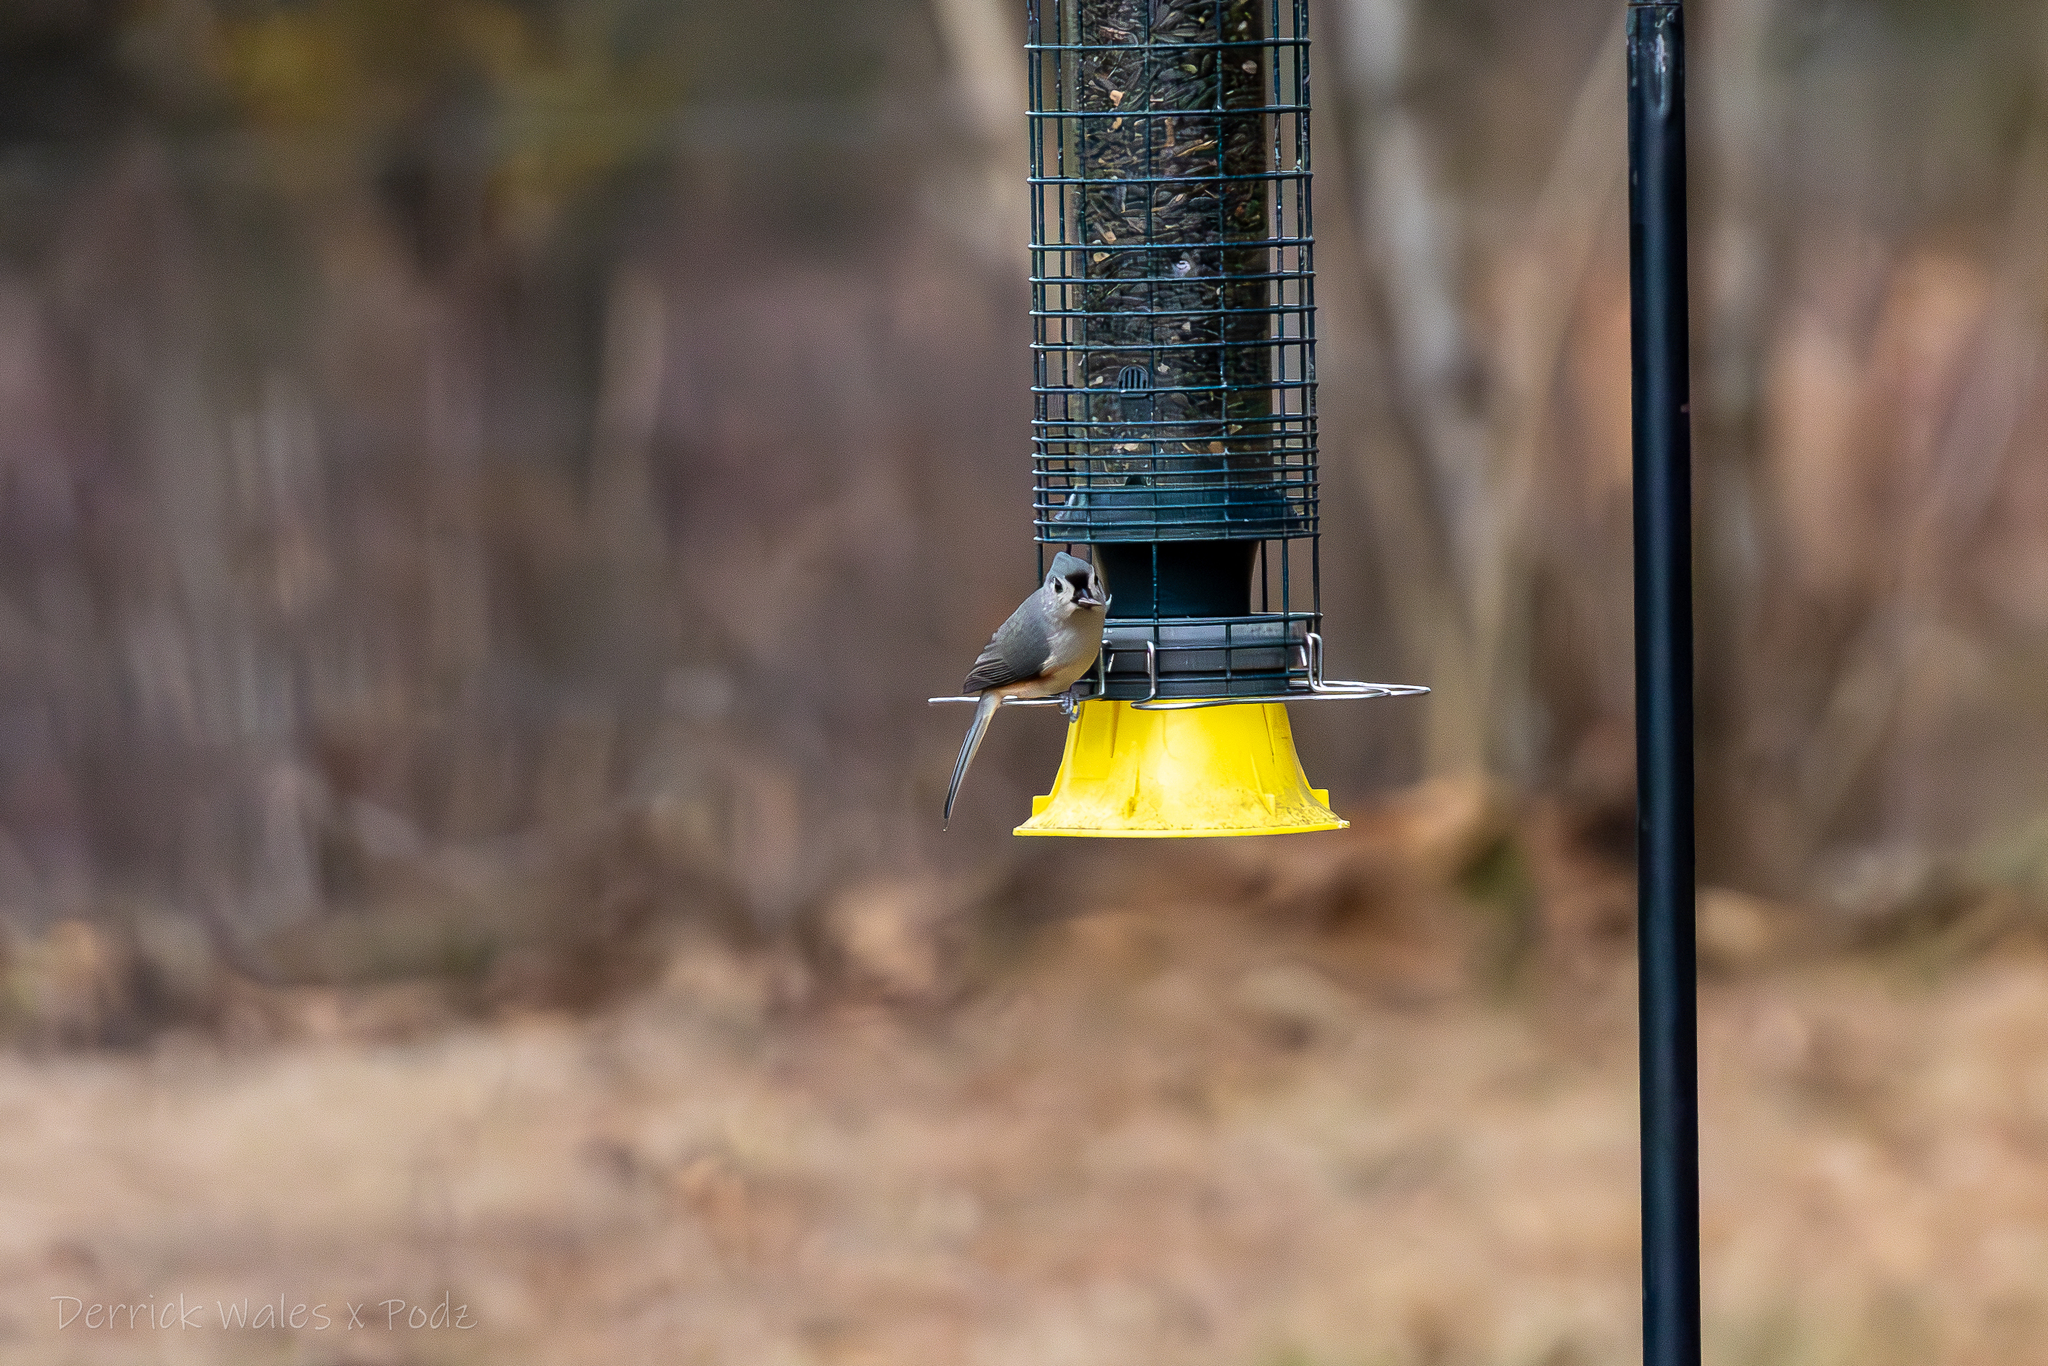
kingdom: Animalia
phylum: Chordata
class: Aves
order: Passeriformes
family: Paridae
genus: Baeolophus
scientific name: Baeolophus bicolor
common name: Tufted titmouse
